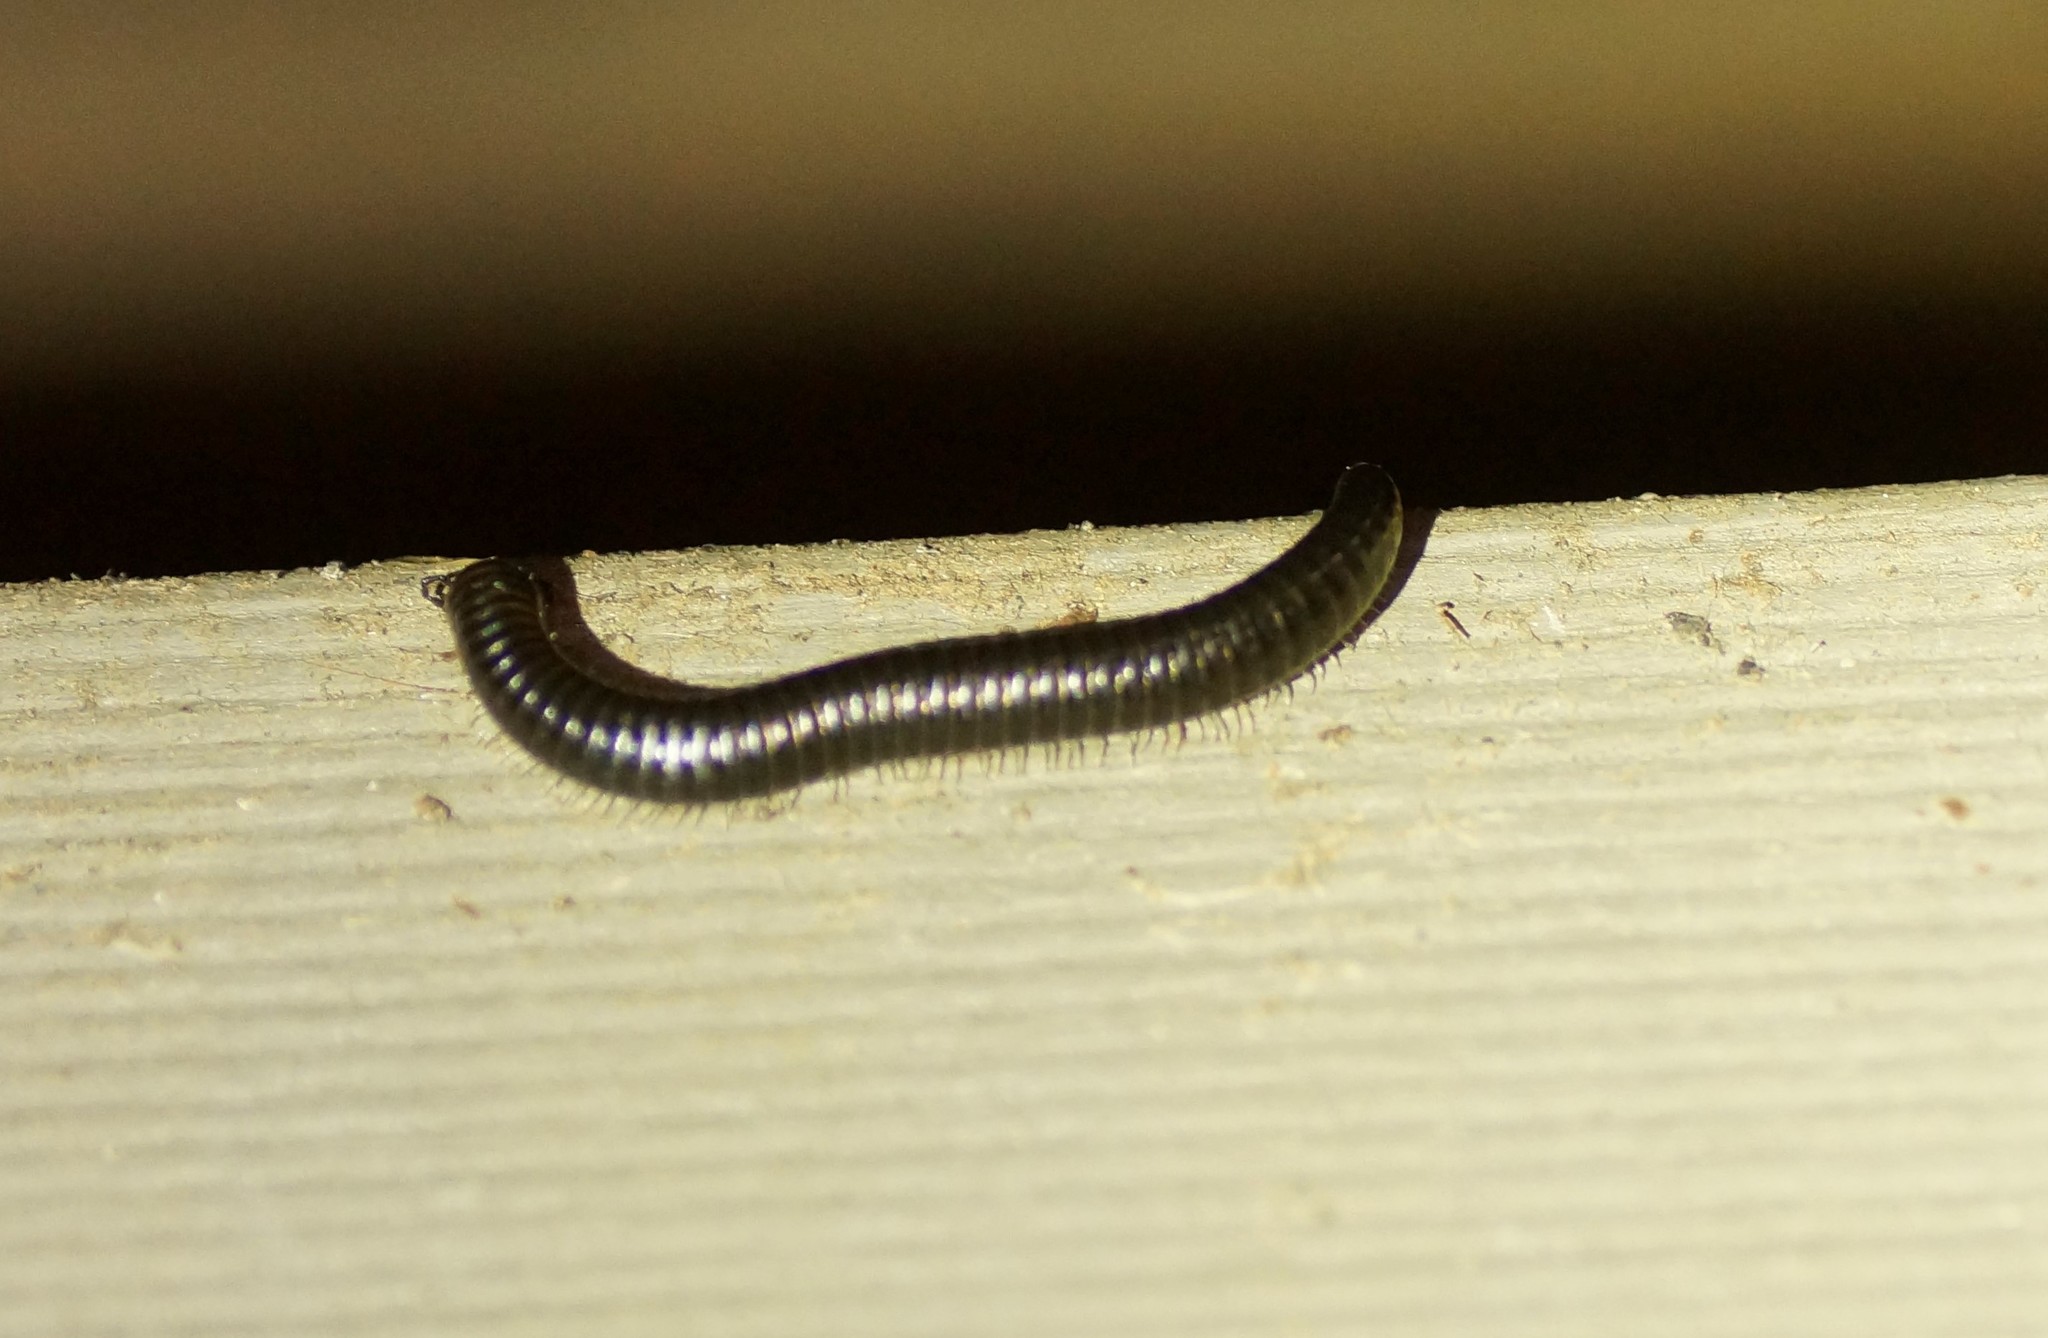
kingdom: Animalia
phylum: Arthropoda
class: Diplopoda
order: Julida
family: Julidae
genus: Ommatoiulus
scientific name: Ommatoiulus moreleti
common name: Portuguese millipede
